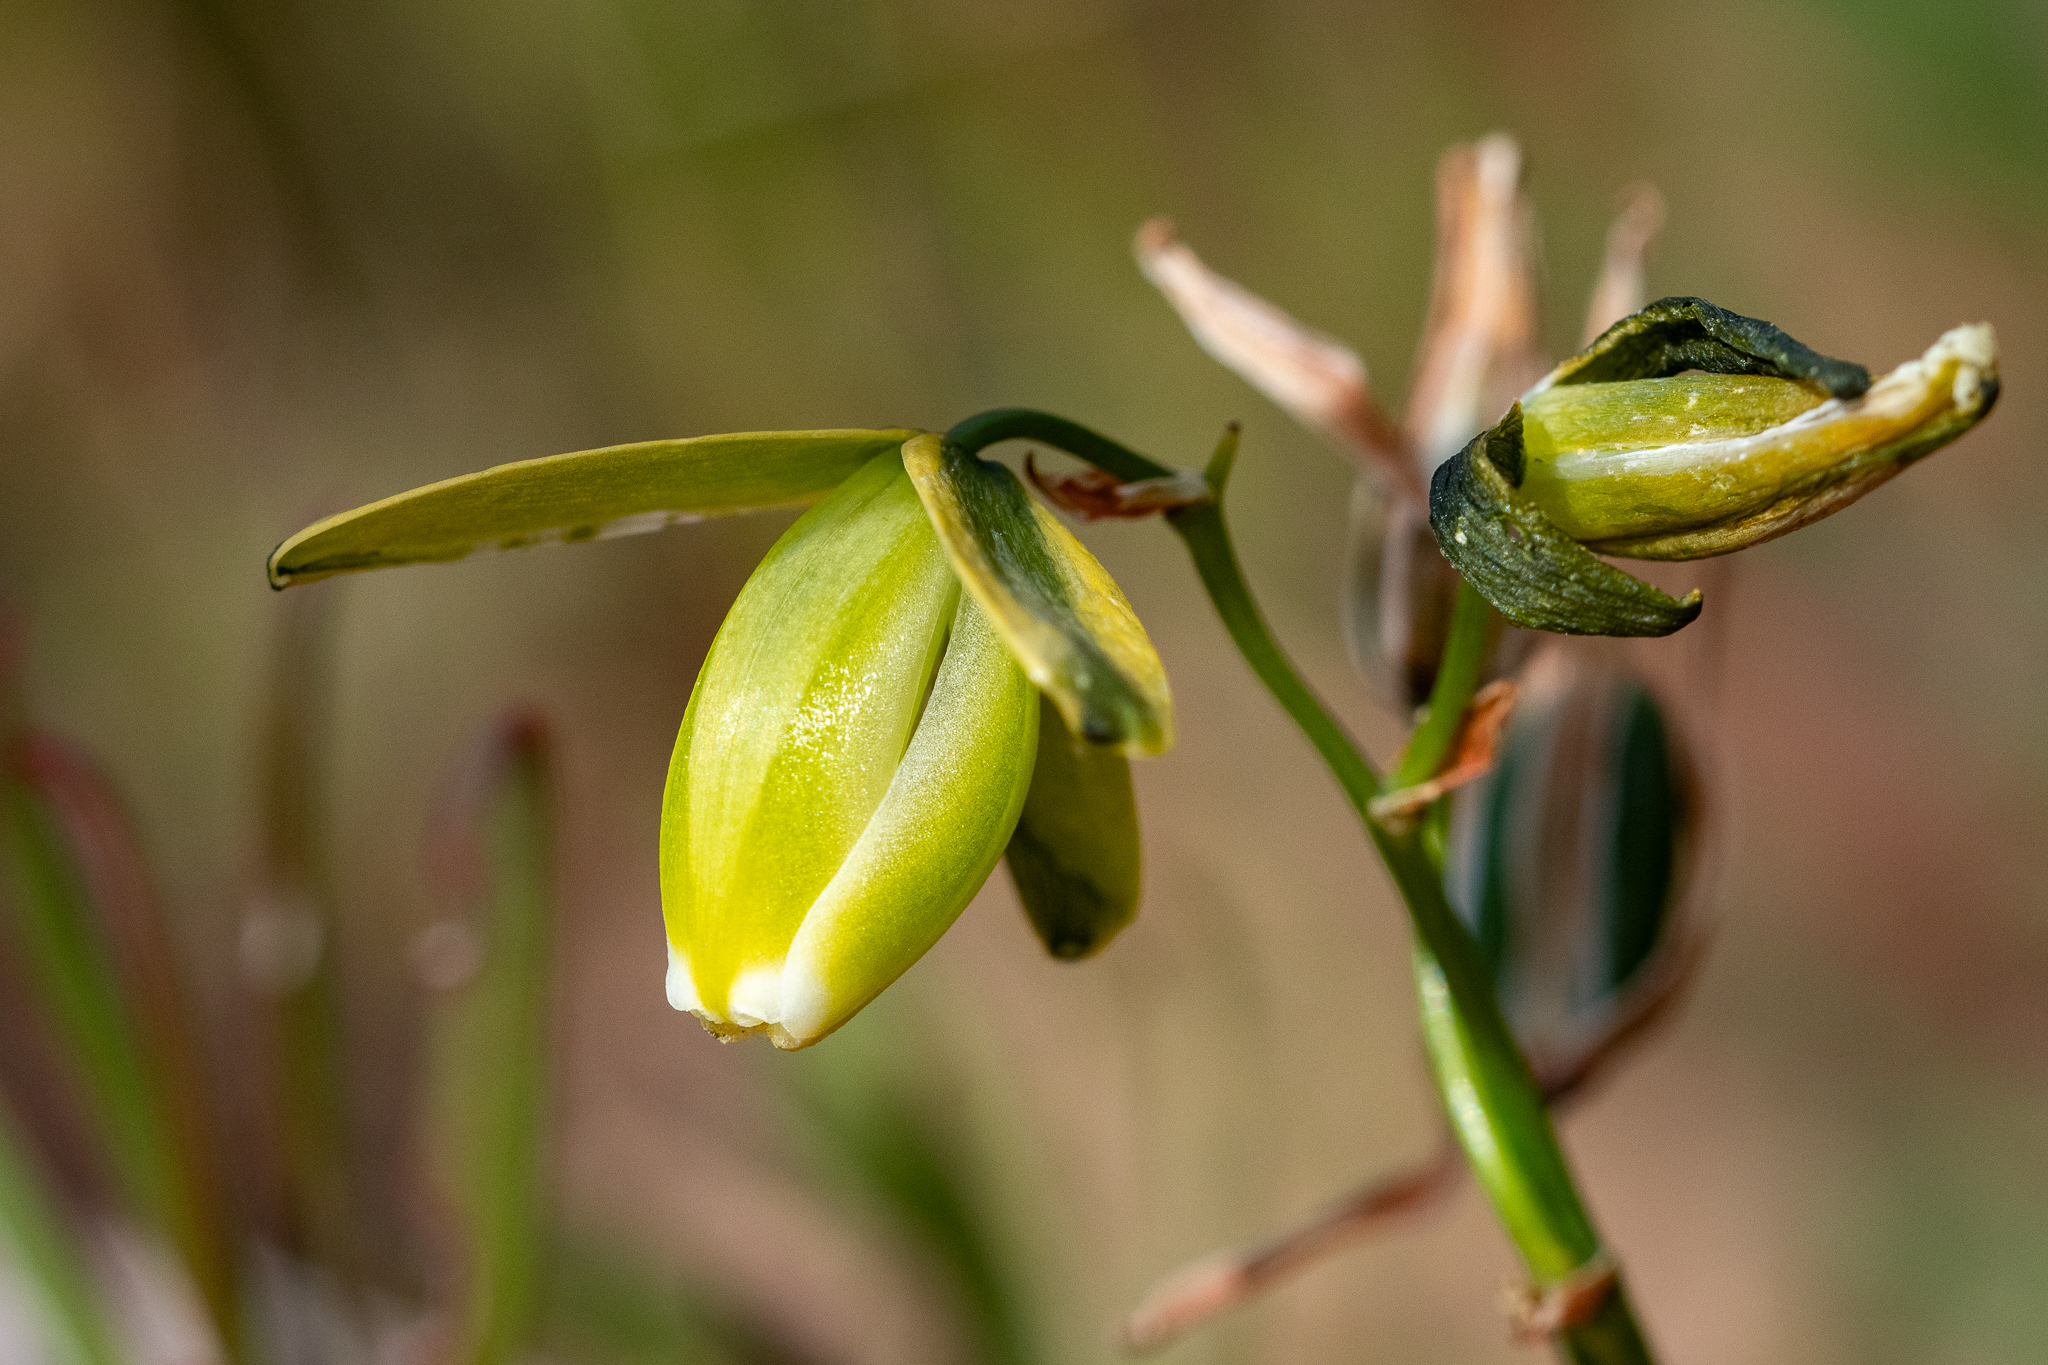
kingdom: Plantae
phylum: Tracheophyta
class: Liliopsida
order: Asparagales
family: Asparagaceae
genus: Albuca
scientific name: Albuca cooperi
